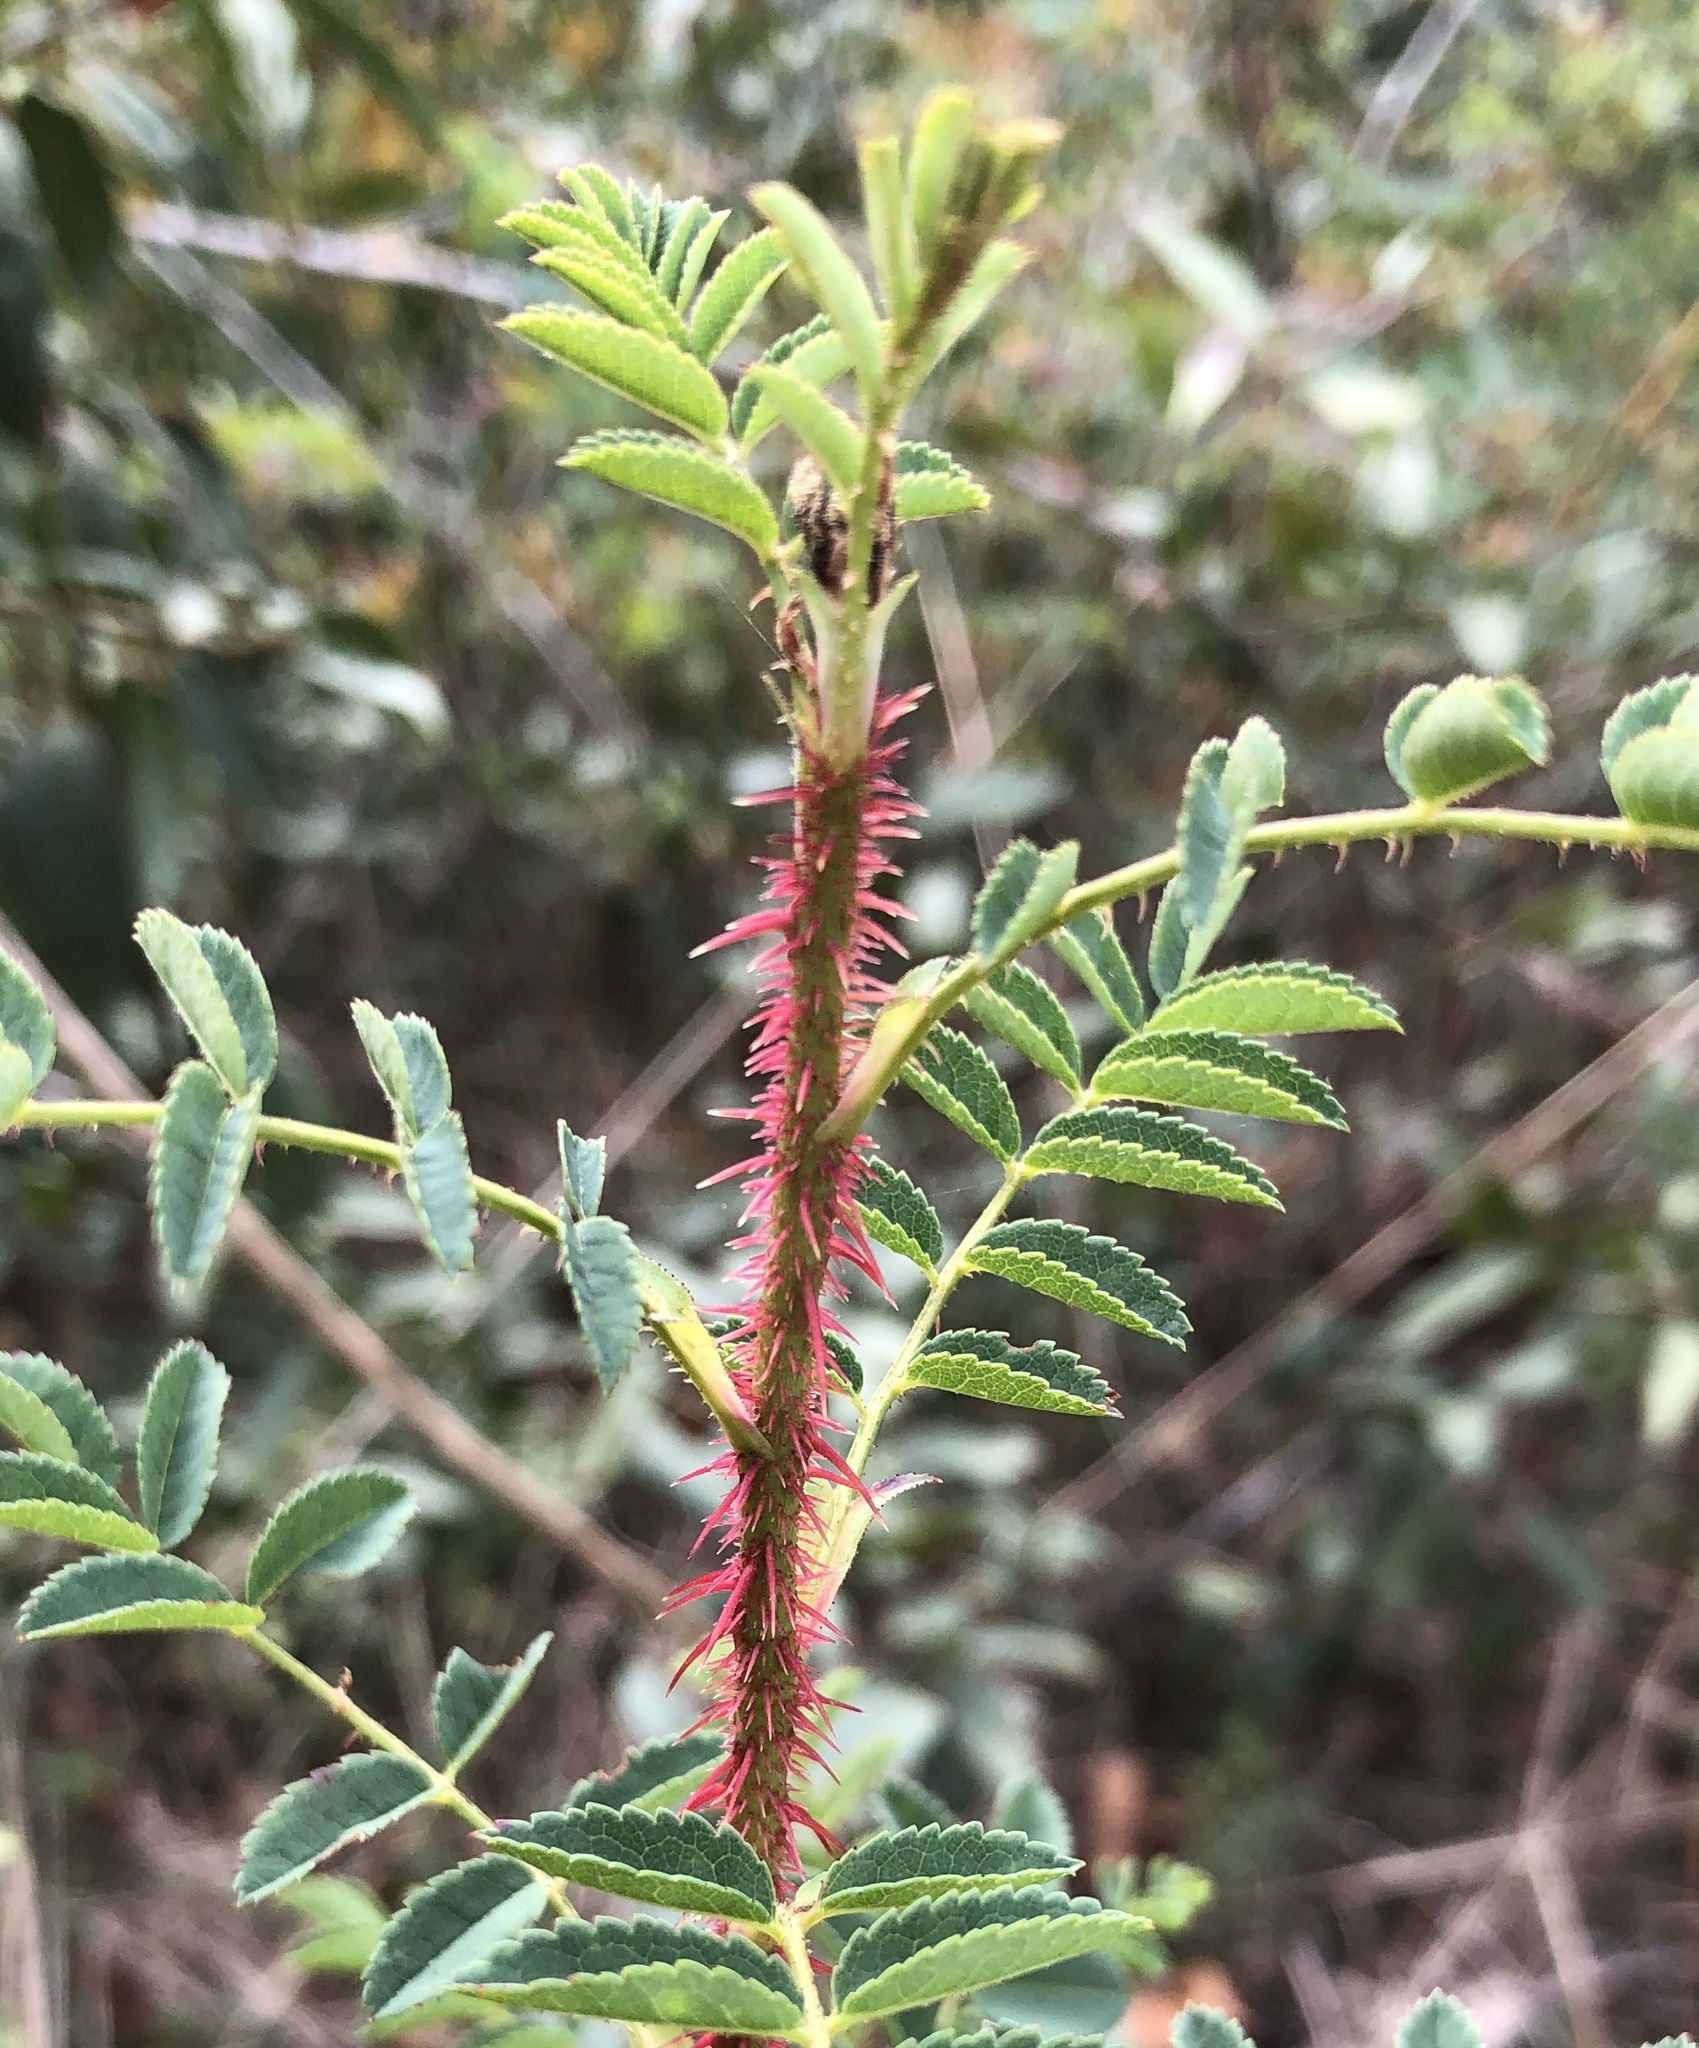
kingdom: Plantae
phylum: Tracheophyta
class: Magnoliopsida
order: Rosales
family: Rosaceae
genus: Rosa
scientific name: Rosa spinosissima
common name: Burnet rose
